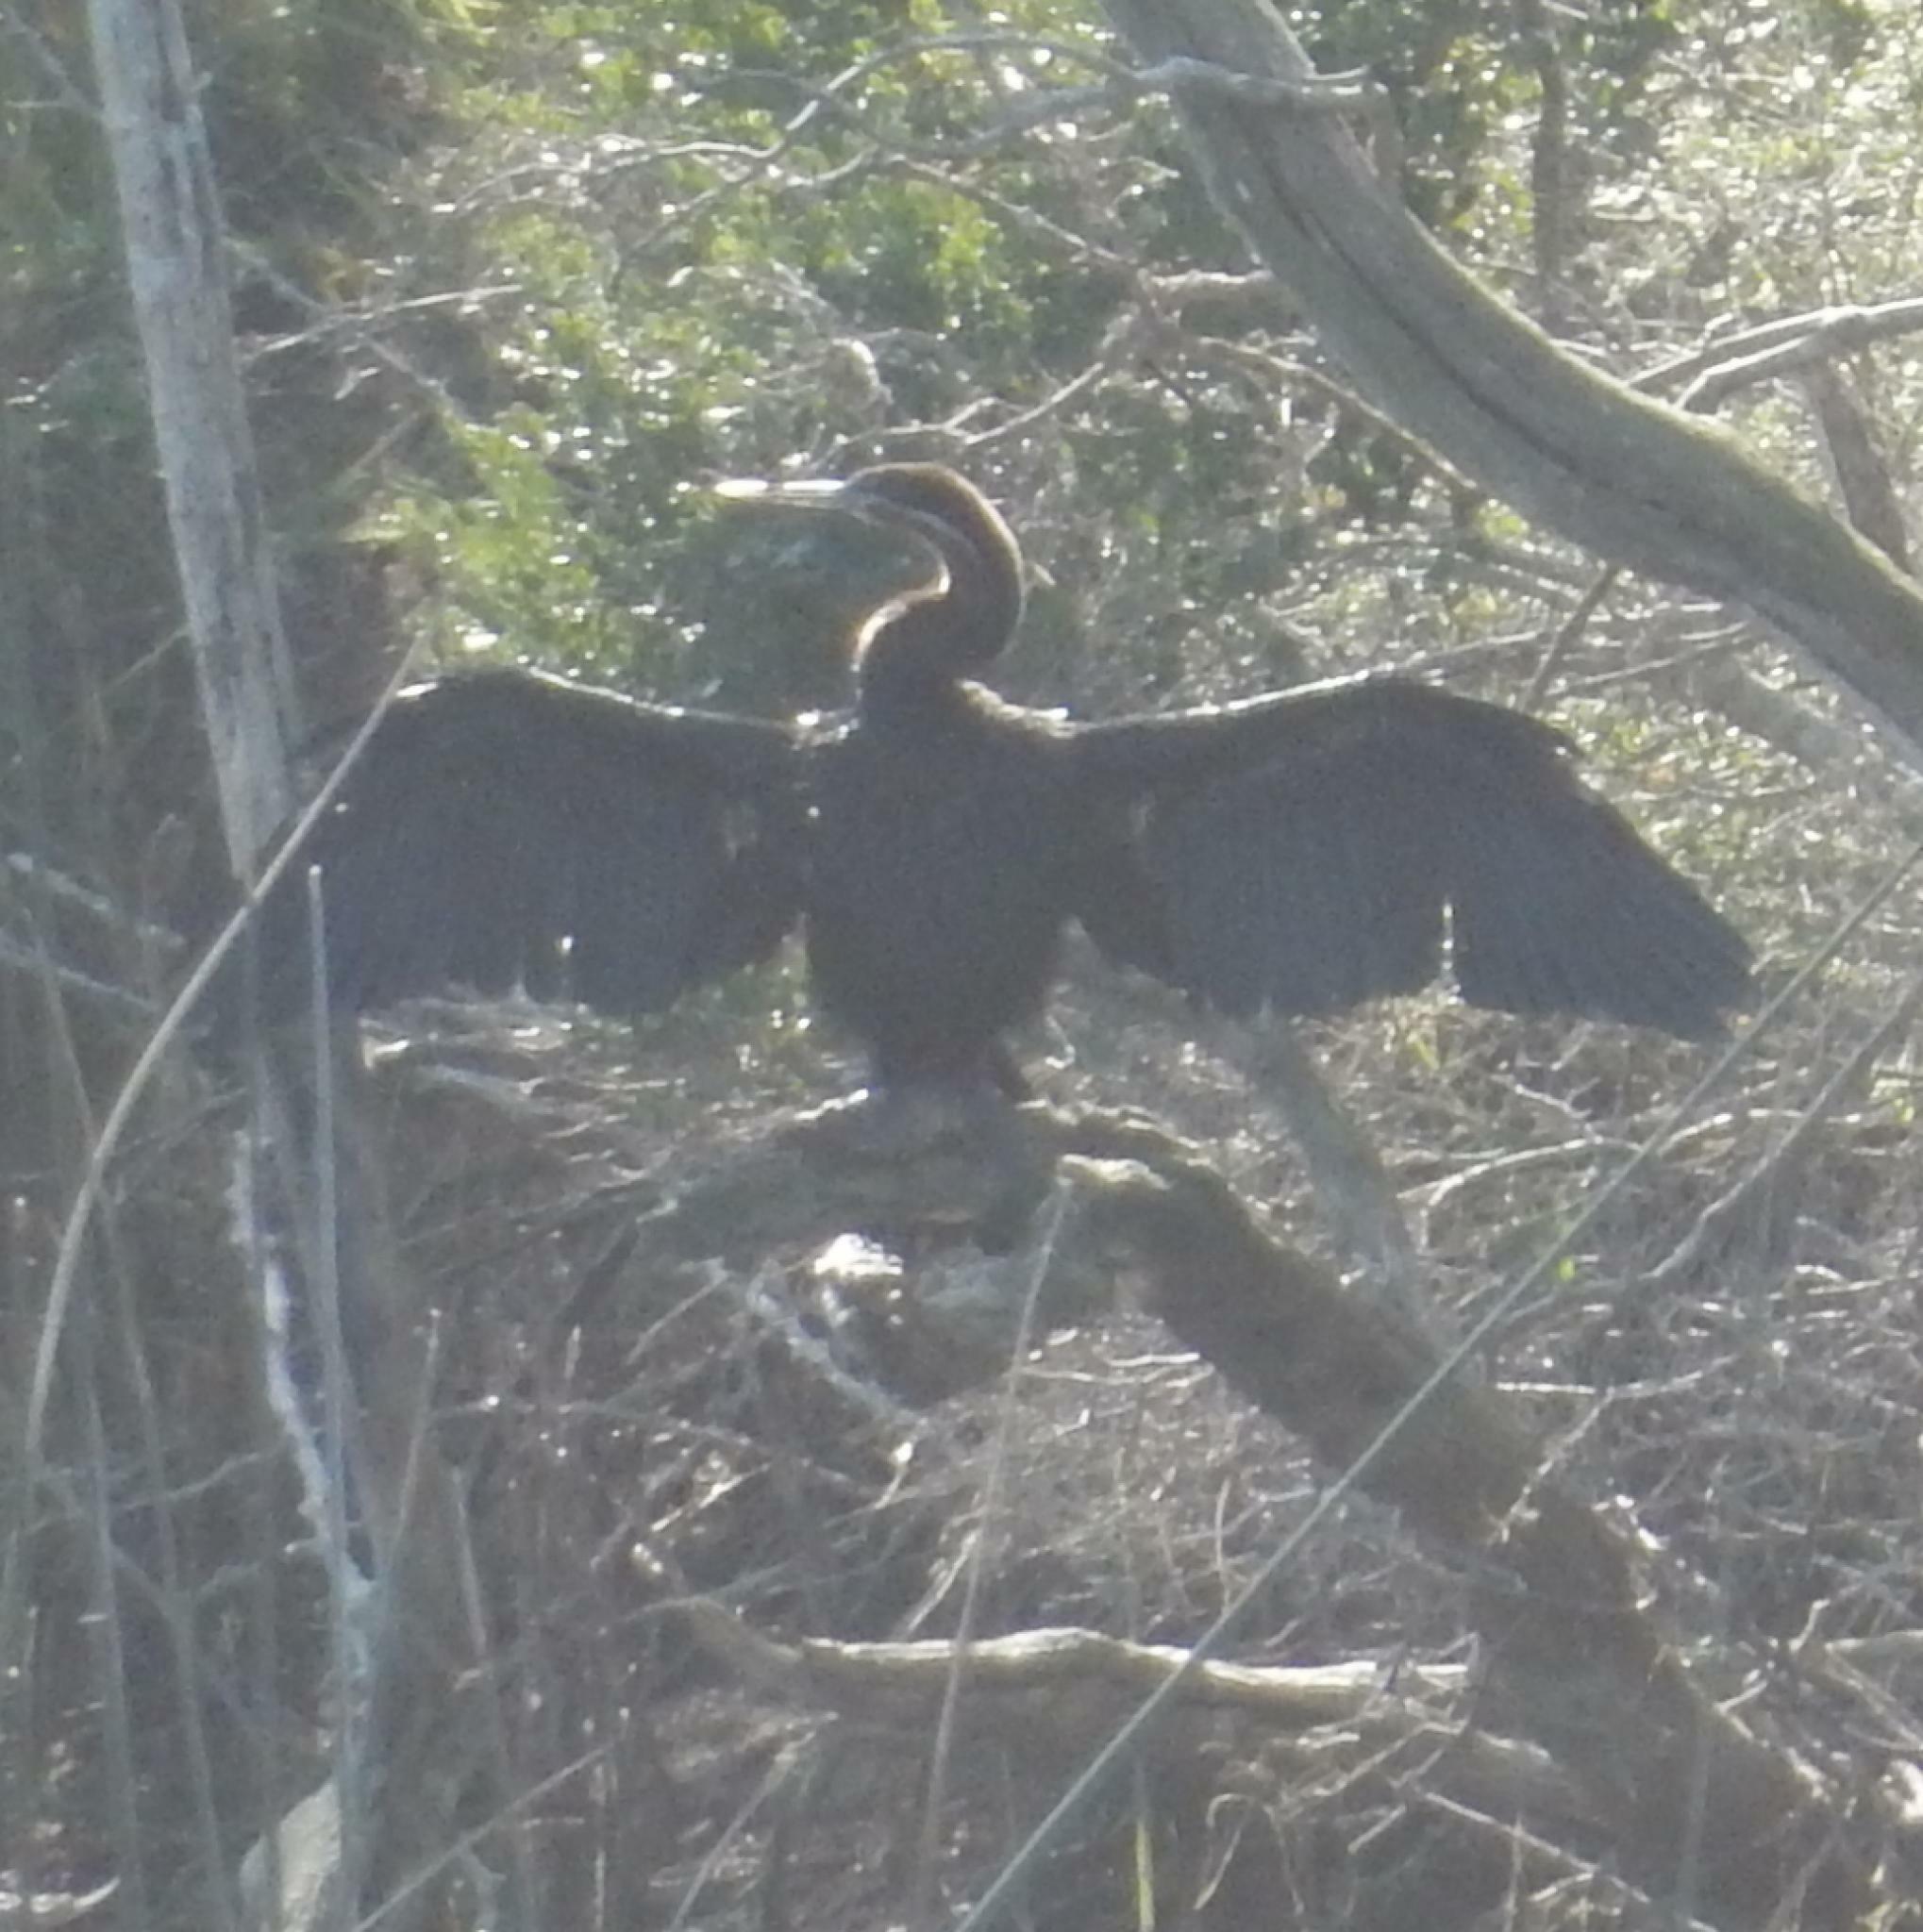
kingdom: Animalia
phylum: Chordata
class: Aves
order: Suliformes
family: Anhingidae
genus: Anhinga
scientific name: Anhinga rufa
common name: African darter
